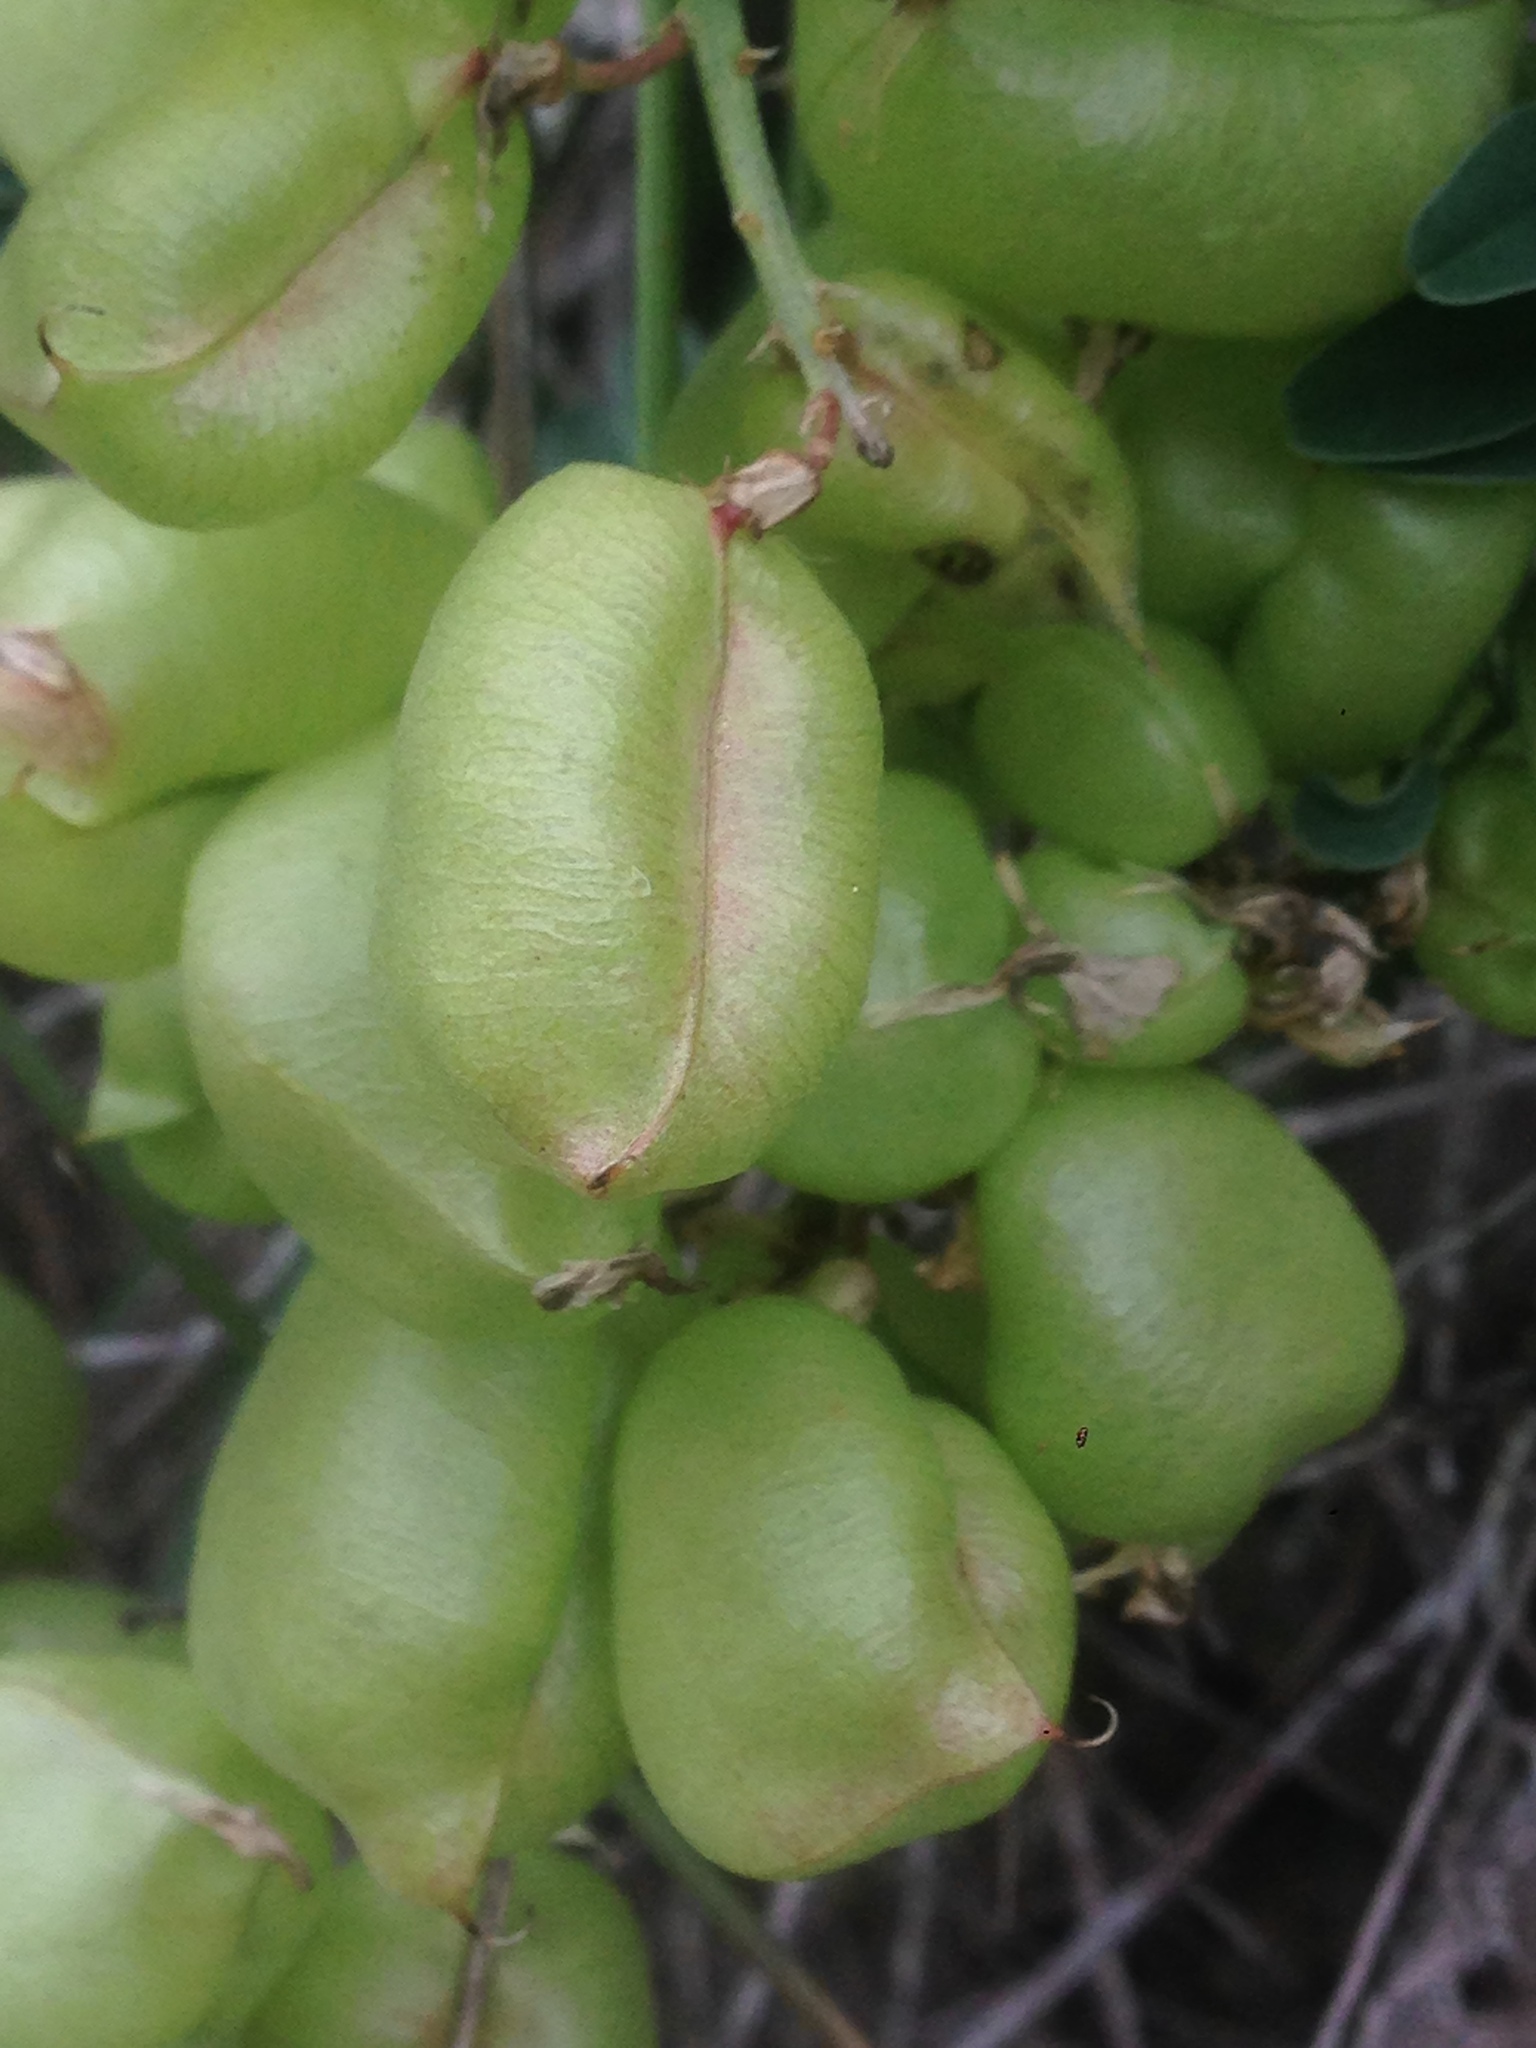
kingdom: Plantae
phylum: Tracheophyta
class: Magnoliopsida
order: Fabales
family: Fabaceae
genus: Astragalus
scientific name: Astragalus curtipes
